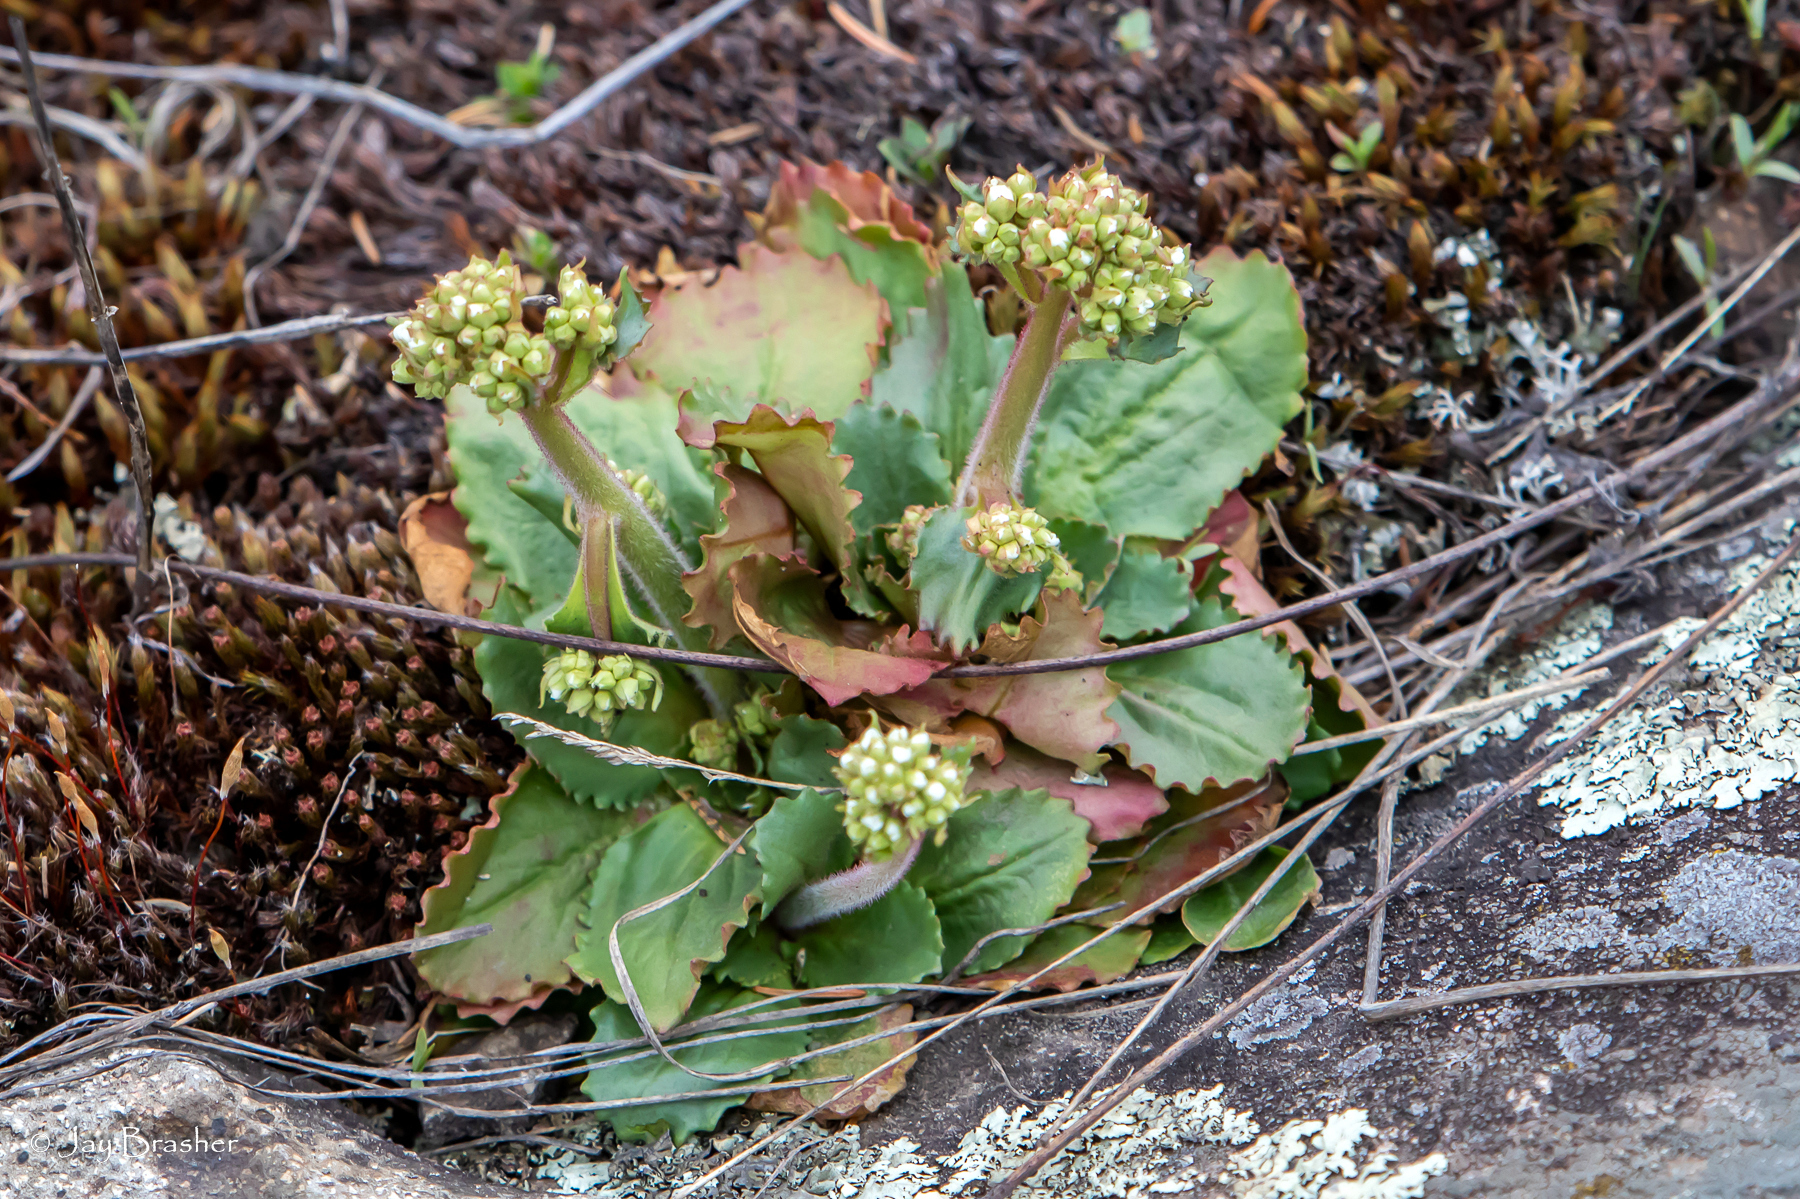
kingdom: Plantae
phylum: Tracheophyta
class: Magnoliopsida
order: Saxifragales
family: Saxifragaceae
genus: Micranthes
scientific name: Micranthes virginiensis
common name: Early saxifrage
